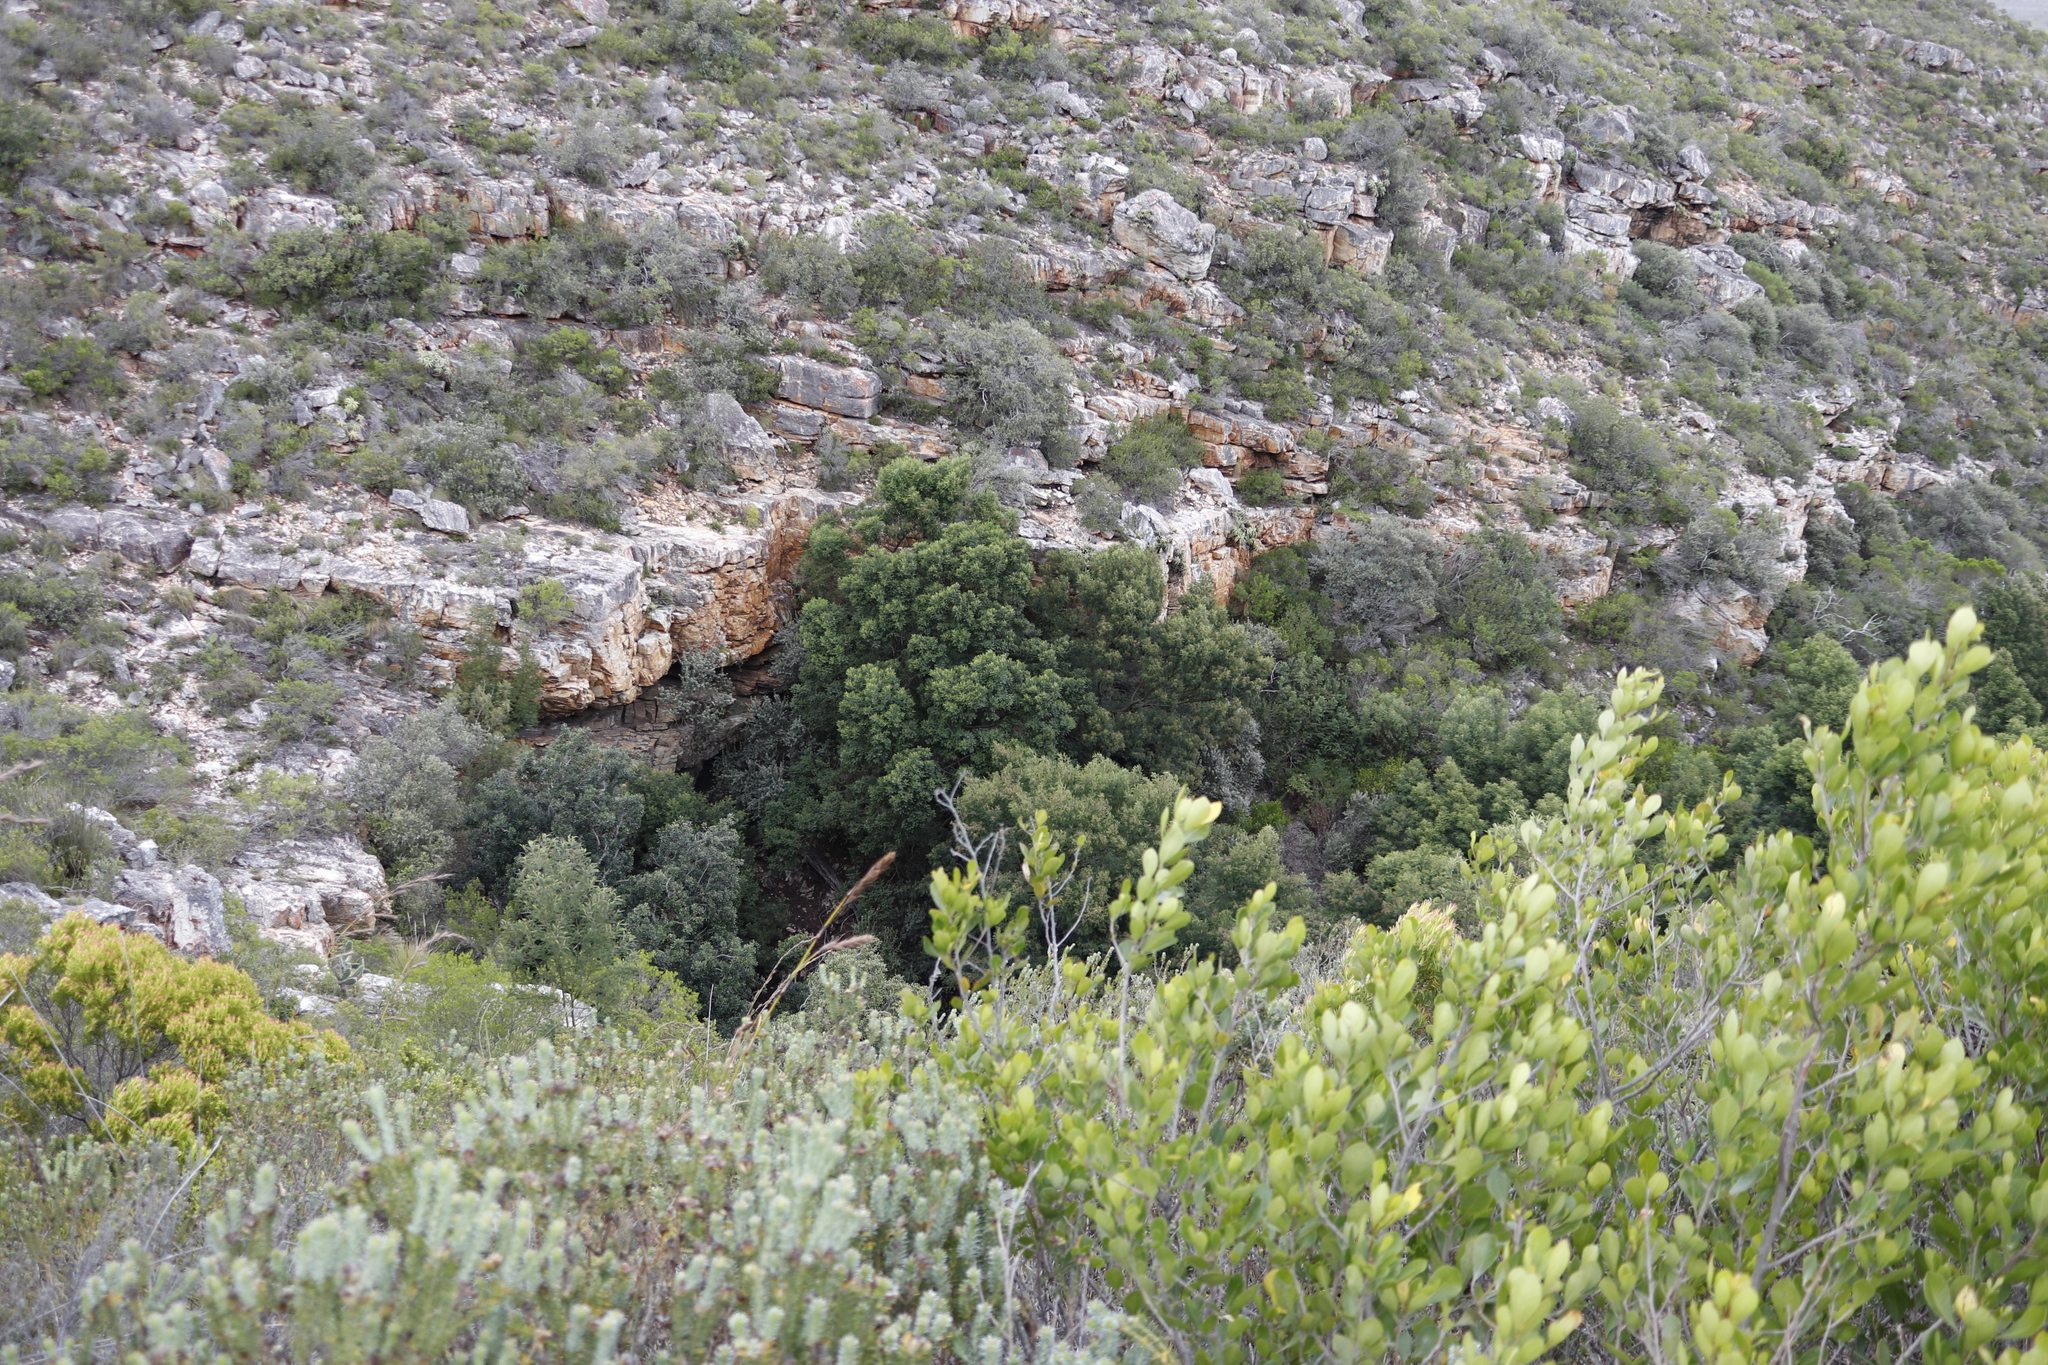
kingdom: Plantae
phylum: Tracheophyta
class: Magnoliopsida
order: Fabales
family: Fabaceae
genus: Acacia
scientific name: Acacia mearnsii
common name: Black wattle
